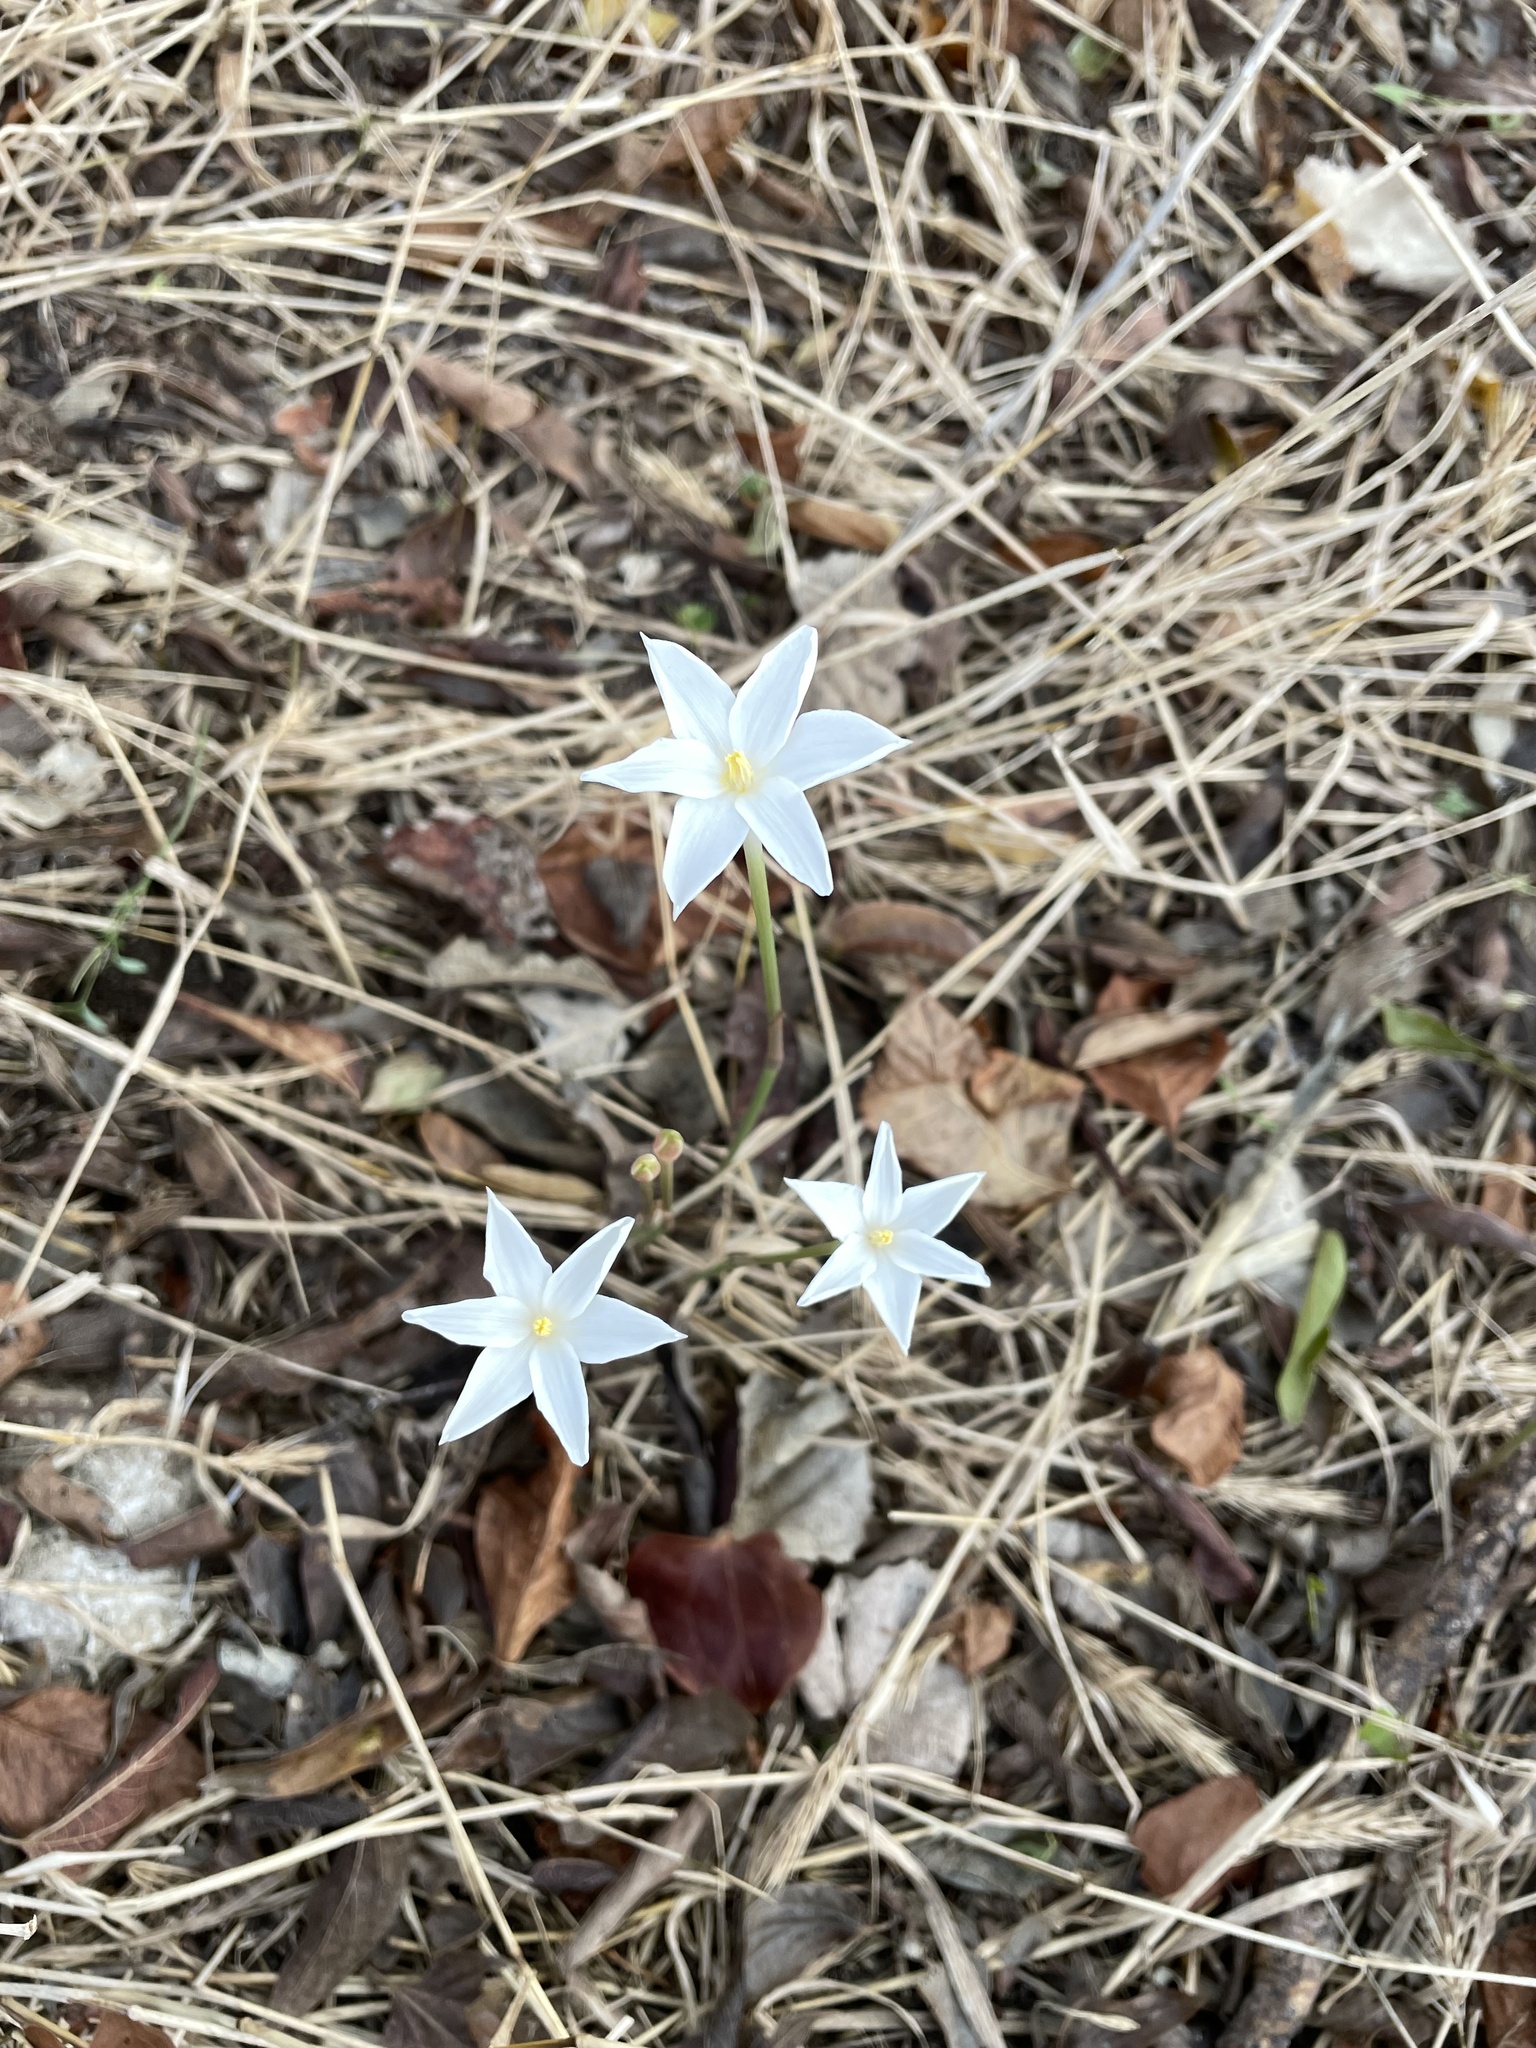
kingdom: Plantae
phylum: Tracheophyta
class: Liliopsida
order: Asparagales
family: Amaryllidaceae
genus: Zephyranthes
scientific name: Zephyranthes chlorosolen
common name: Evening rain-lily
